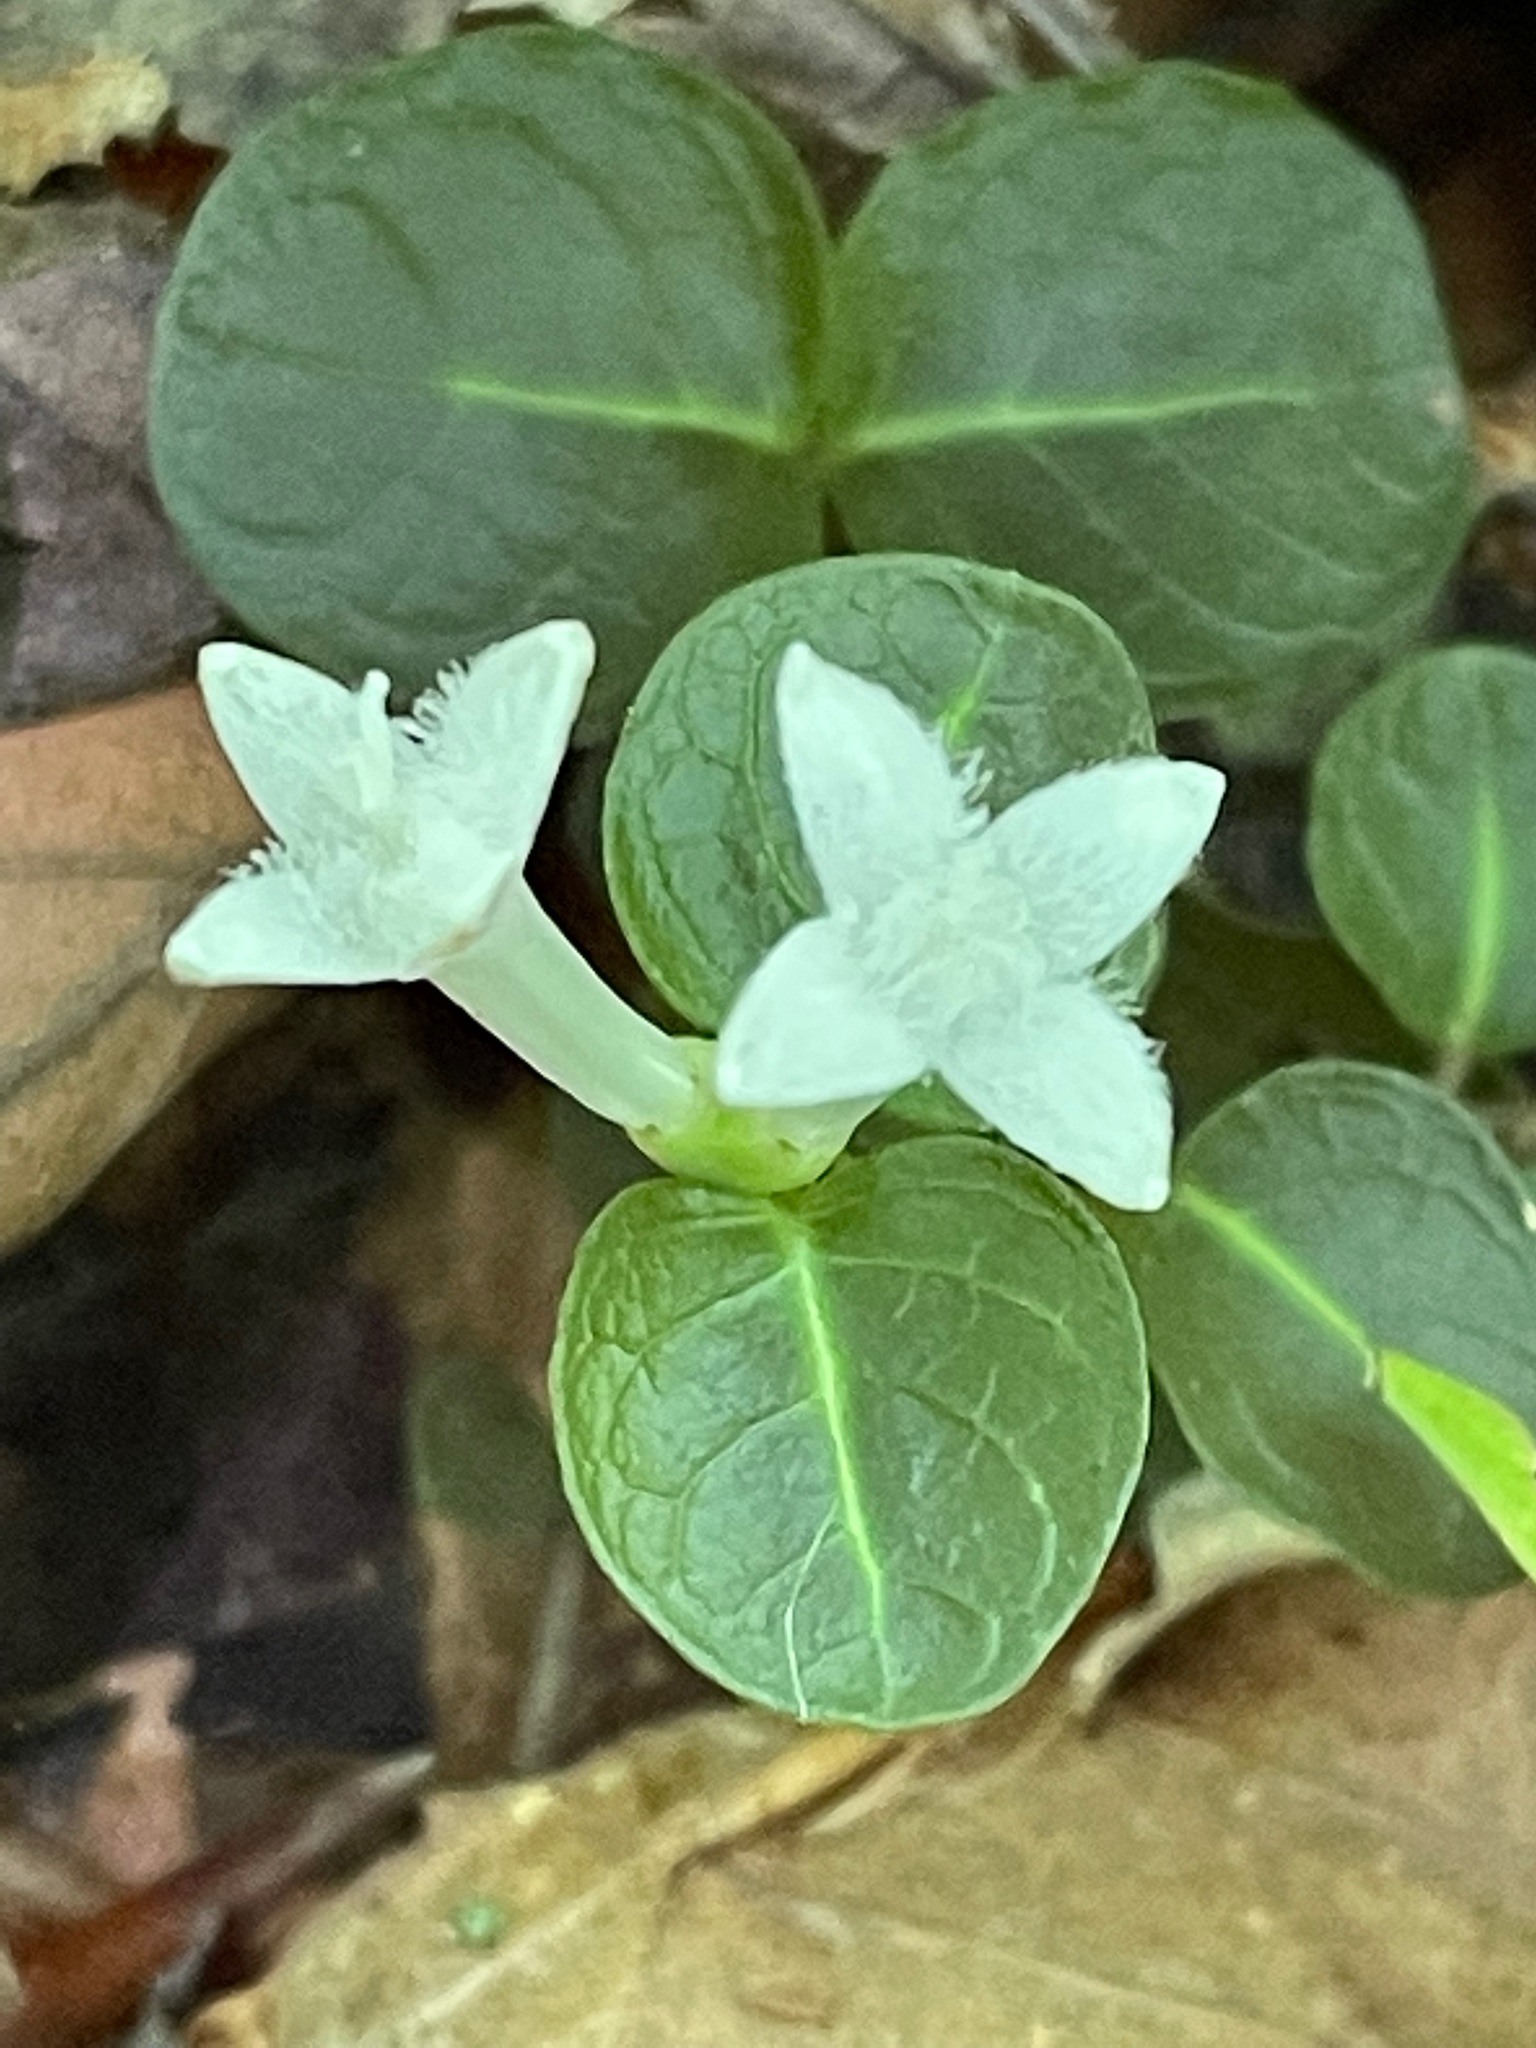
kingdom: Plantae
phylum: Tracheophyta
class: Magnoliopsida
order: Gentianales
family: Rubiaceae
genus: Mitchella
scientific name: Mitchella repens
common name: Partridge-berry
